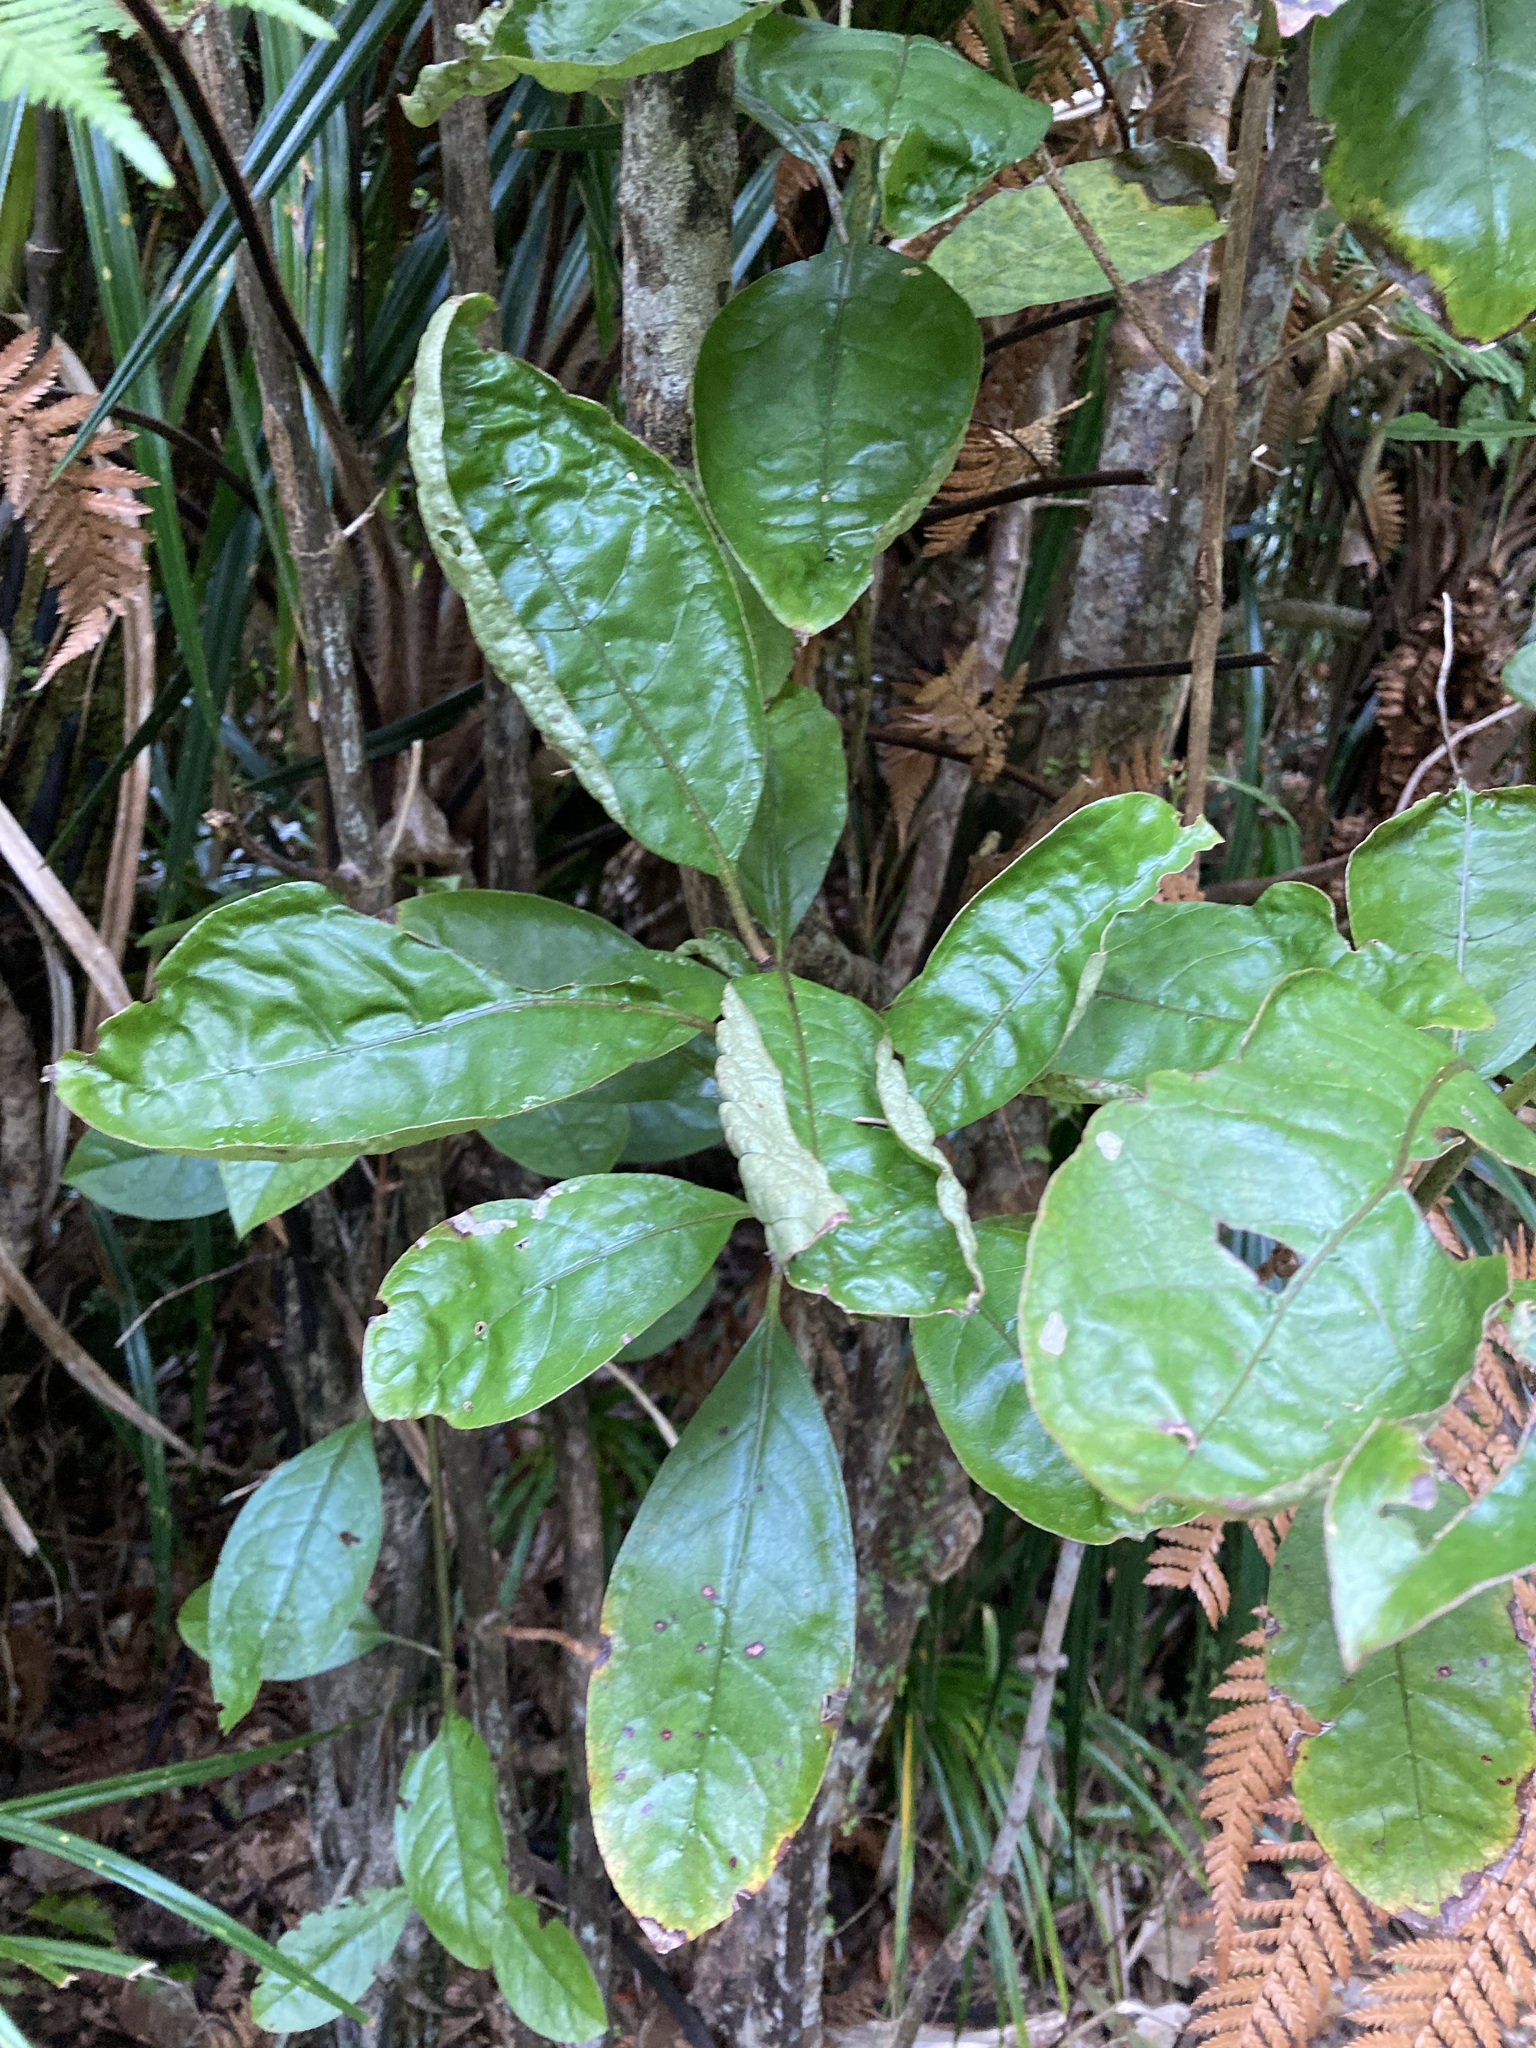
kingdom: Plantae
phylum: Tracheophyta
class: Magnoliopsida
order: Gentianales
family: Rubiaceae
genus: Coprosma
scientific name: Coprosma autumnalis
